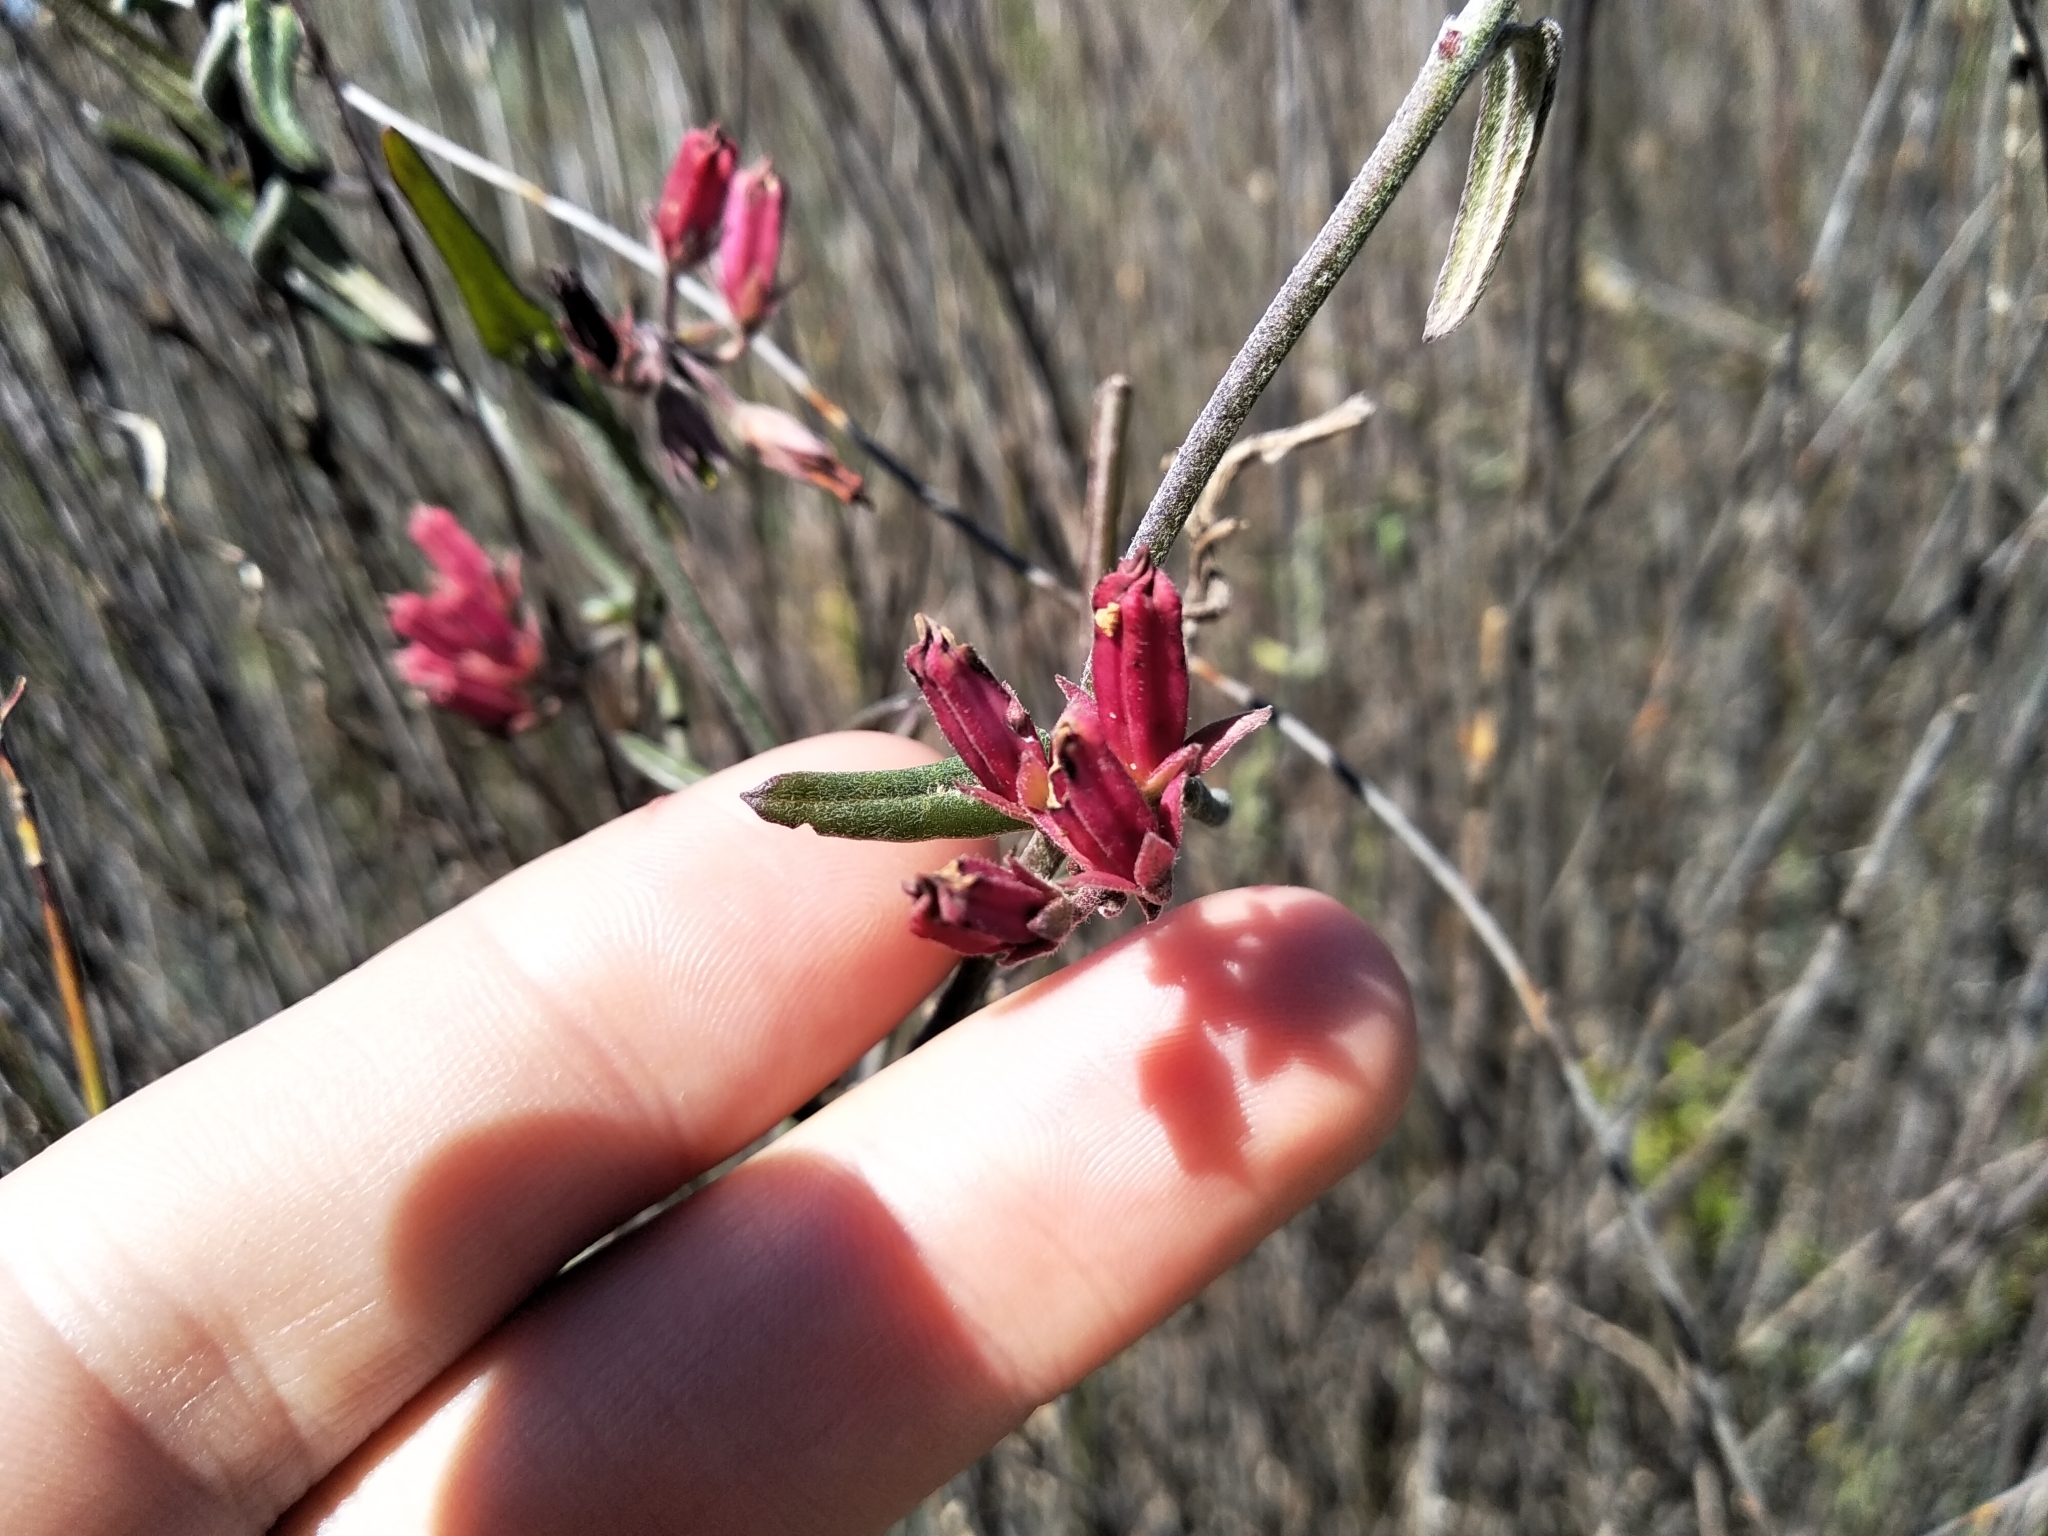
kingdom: Plantae
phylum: Tracheophyta
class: Magnoliopsida
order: Gentianales
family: Apocynaceae
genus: Microloma
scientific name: Microloma sagittatum
